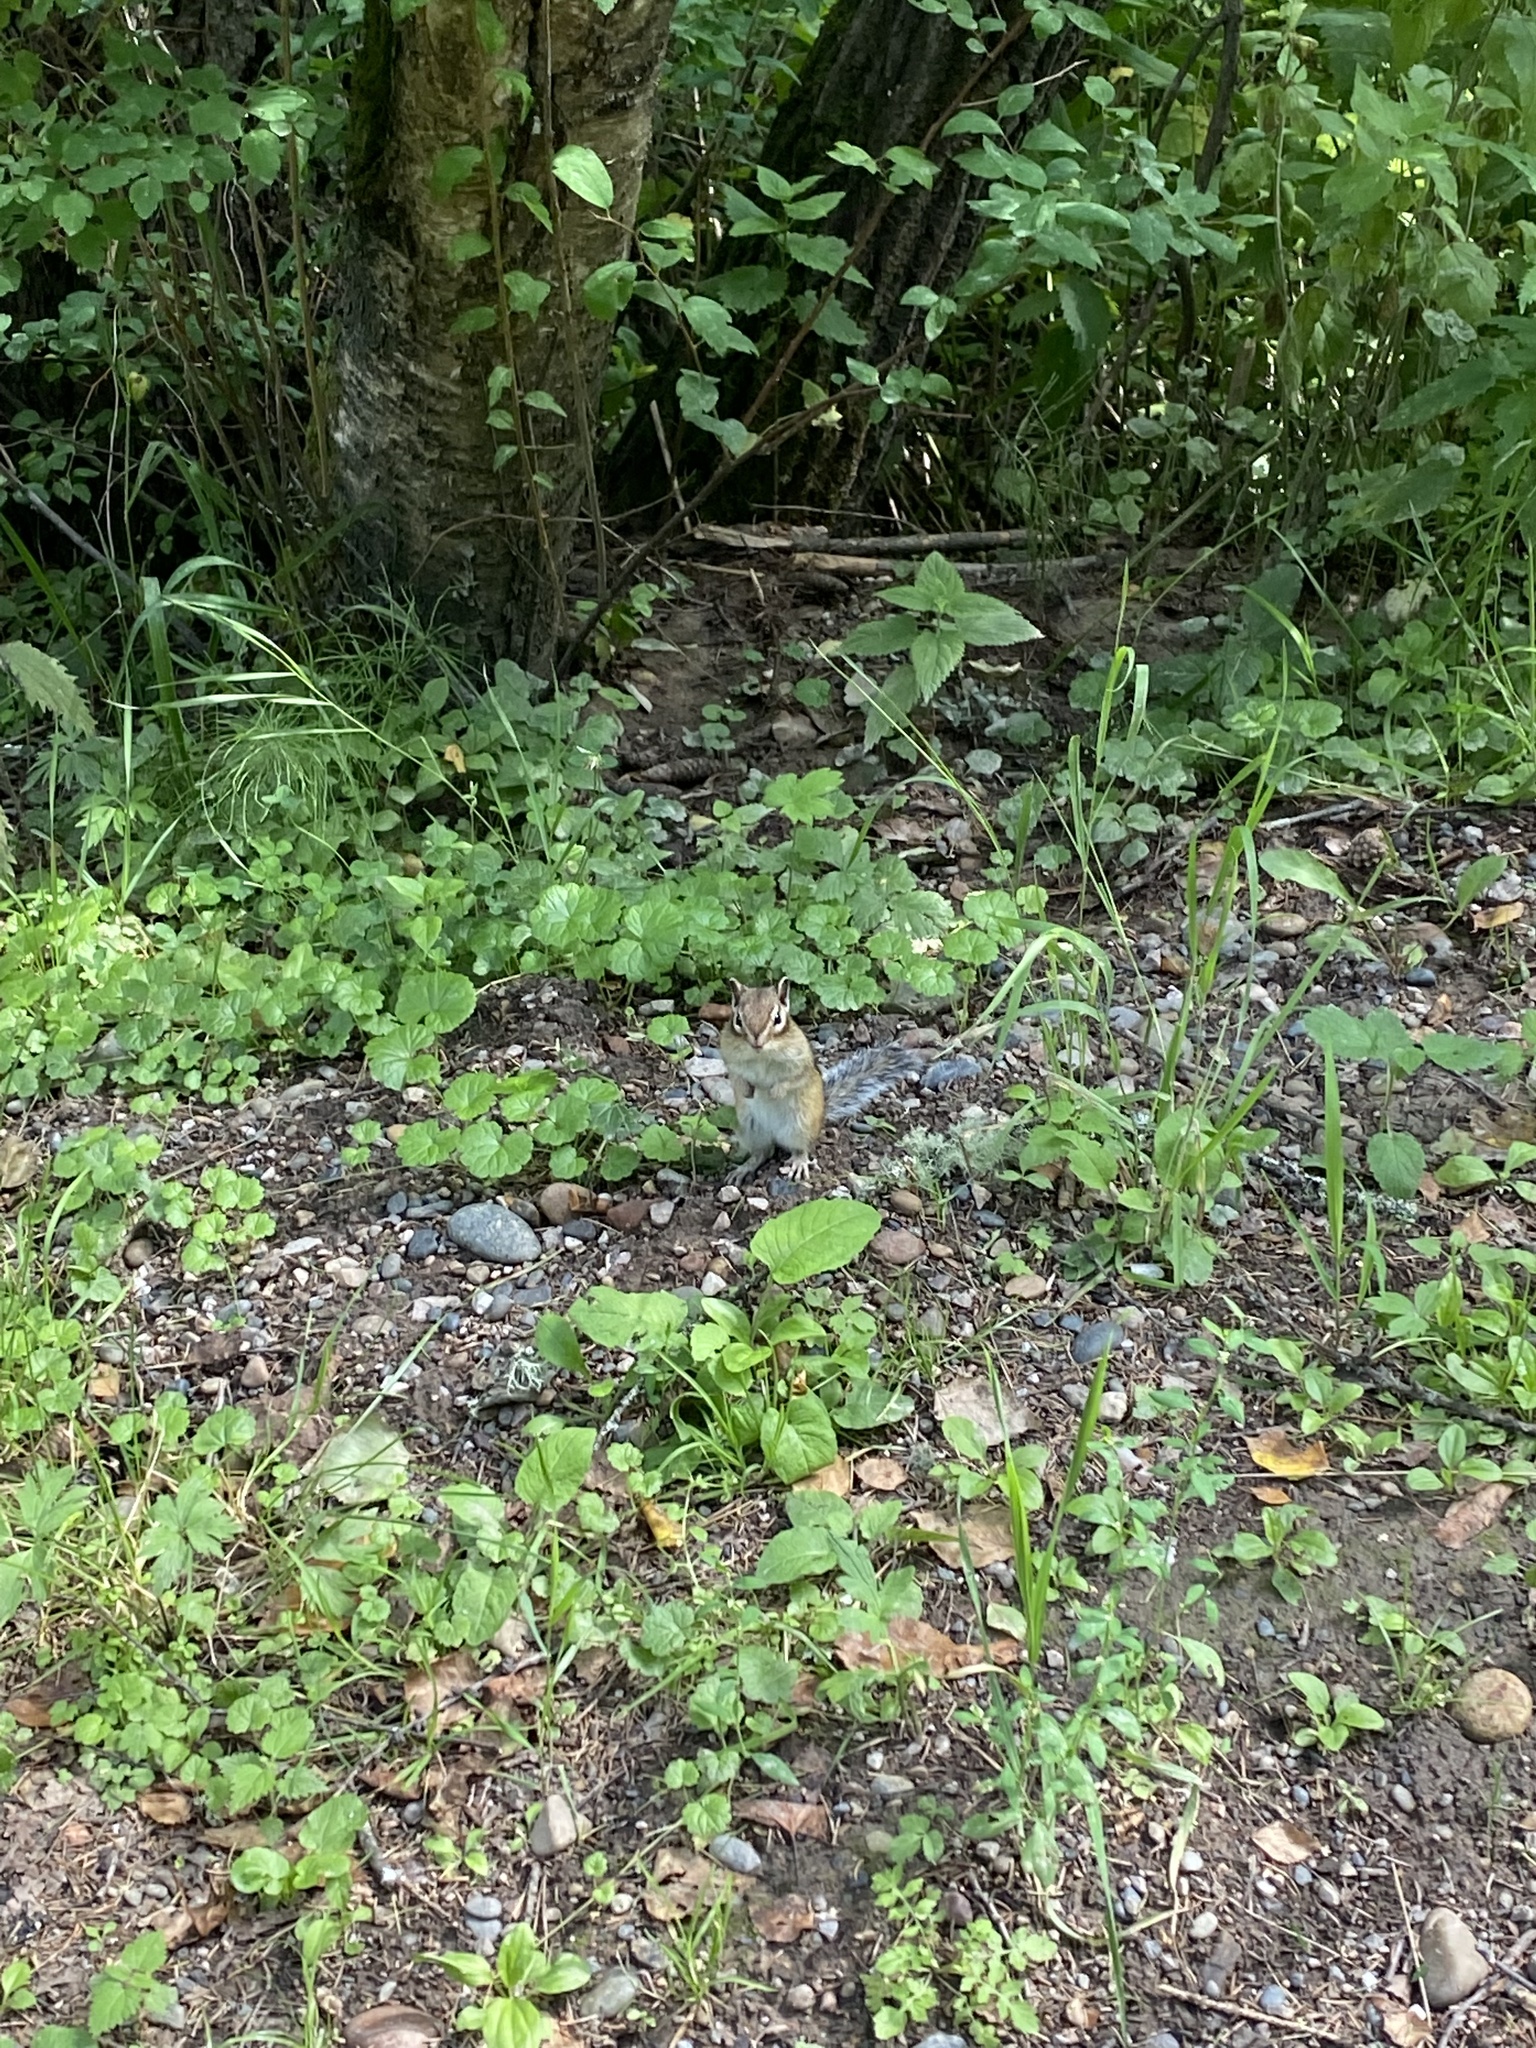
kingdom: Animalia
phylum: Chordata
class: Mammalia
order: Rodentia
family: Sciuridae
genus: Tamias
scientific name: Tamias sibiricus
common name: Siberian chipmunk
